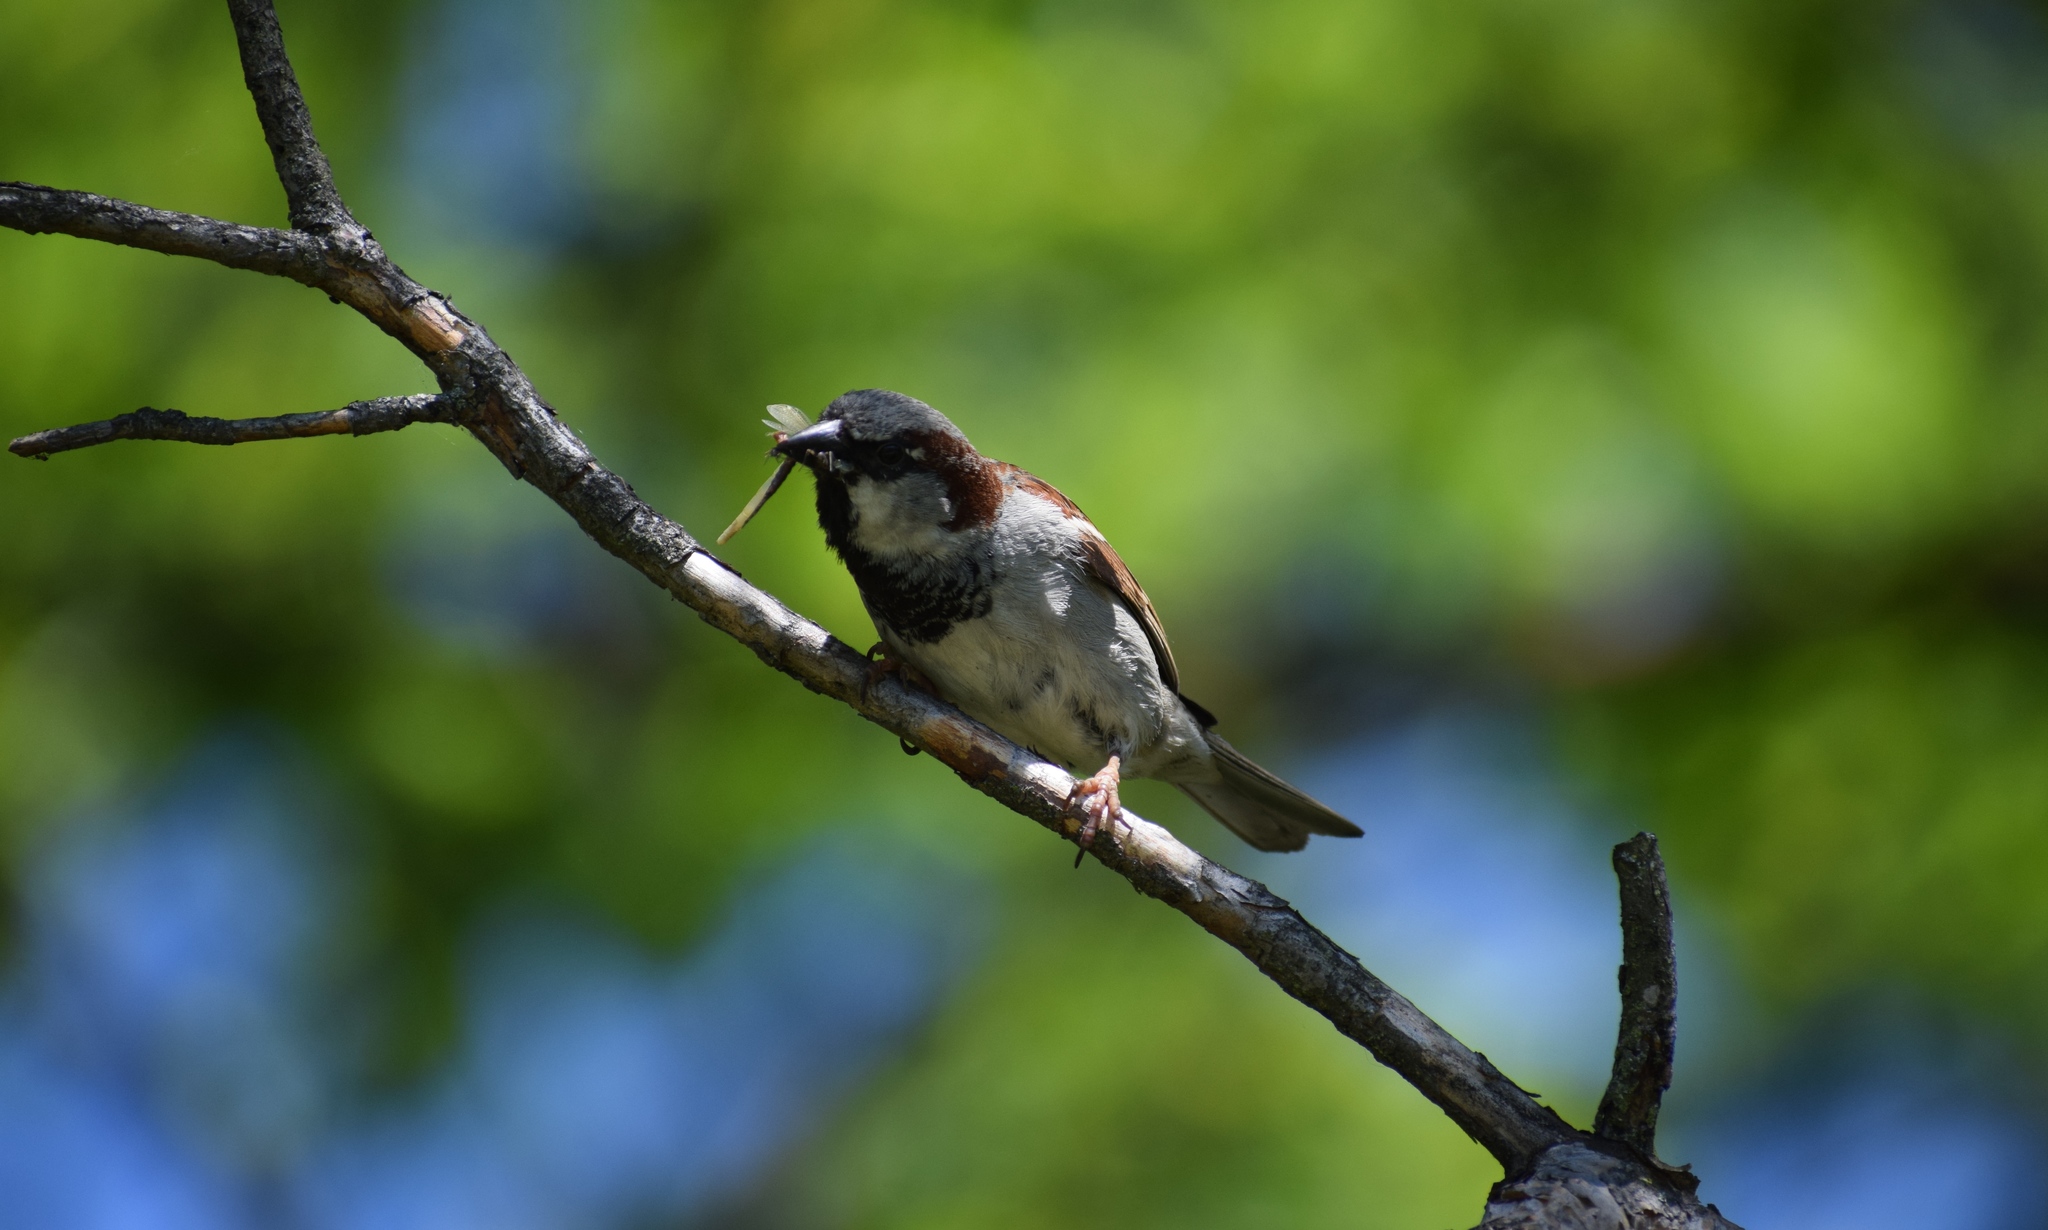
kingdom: Animalia
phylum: Chordata
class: Aves
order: Passeriformes
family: Passeridae
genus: Passer
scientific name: Passer domesticus
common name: House sparrow
